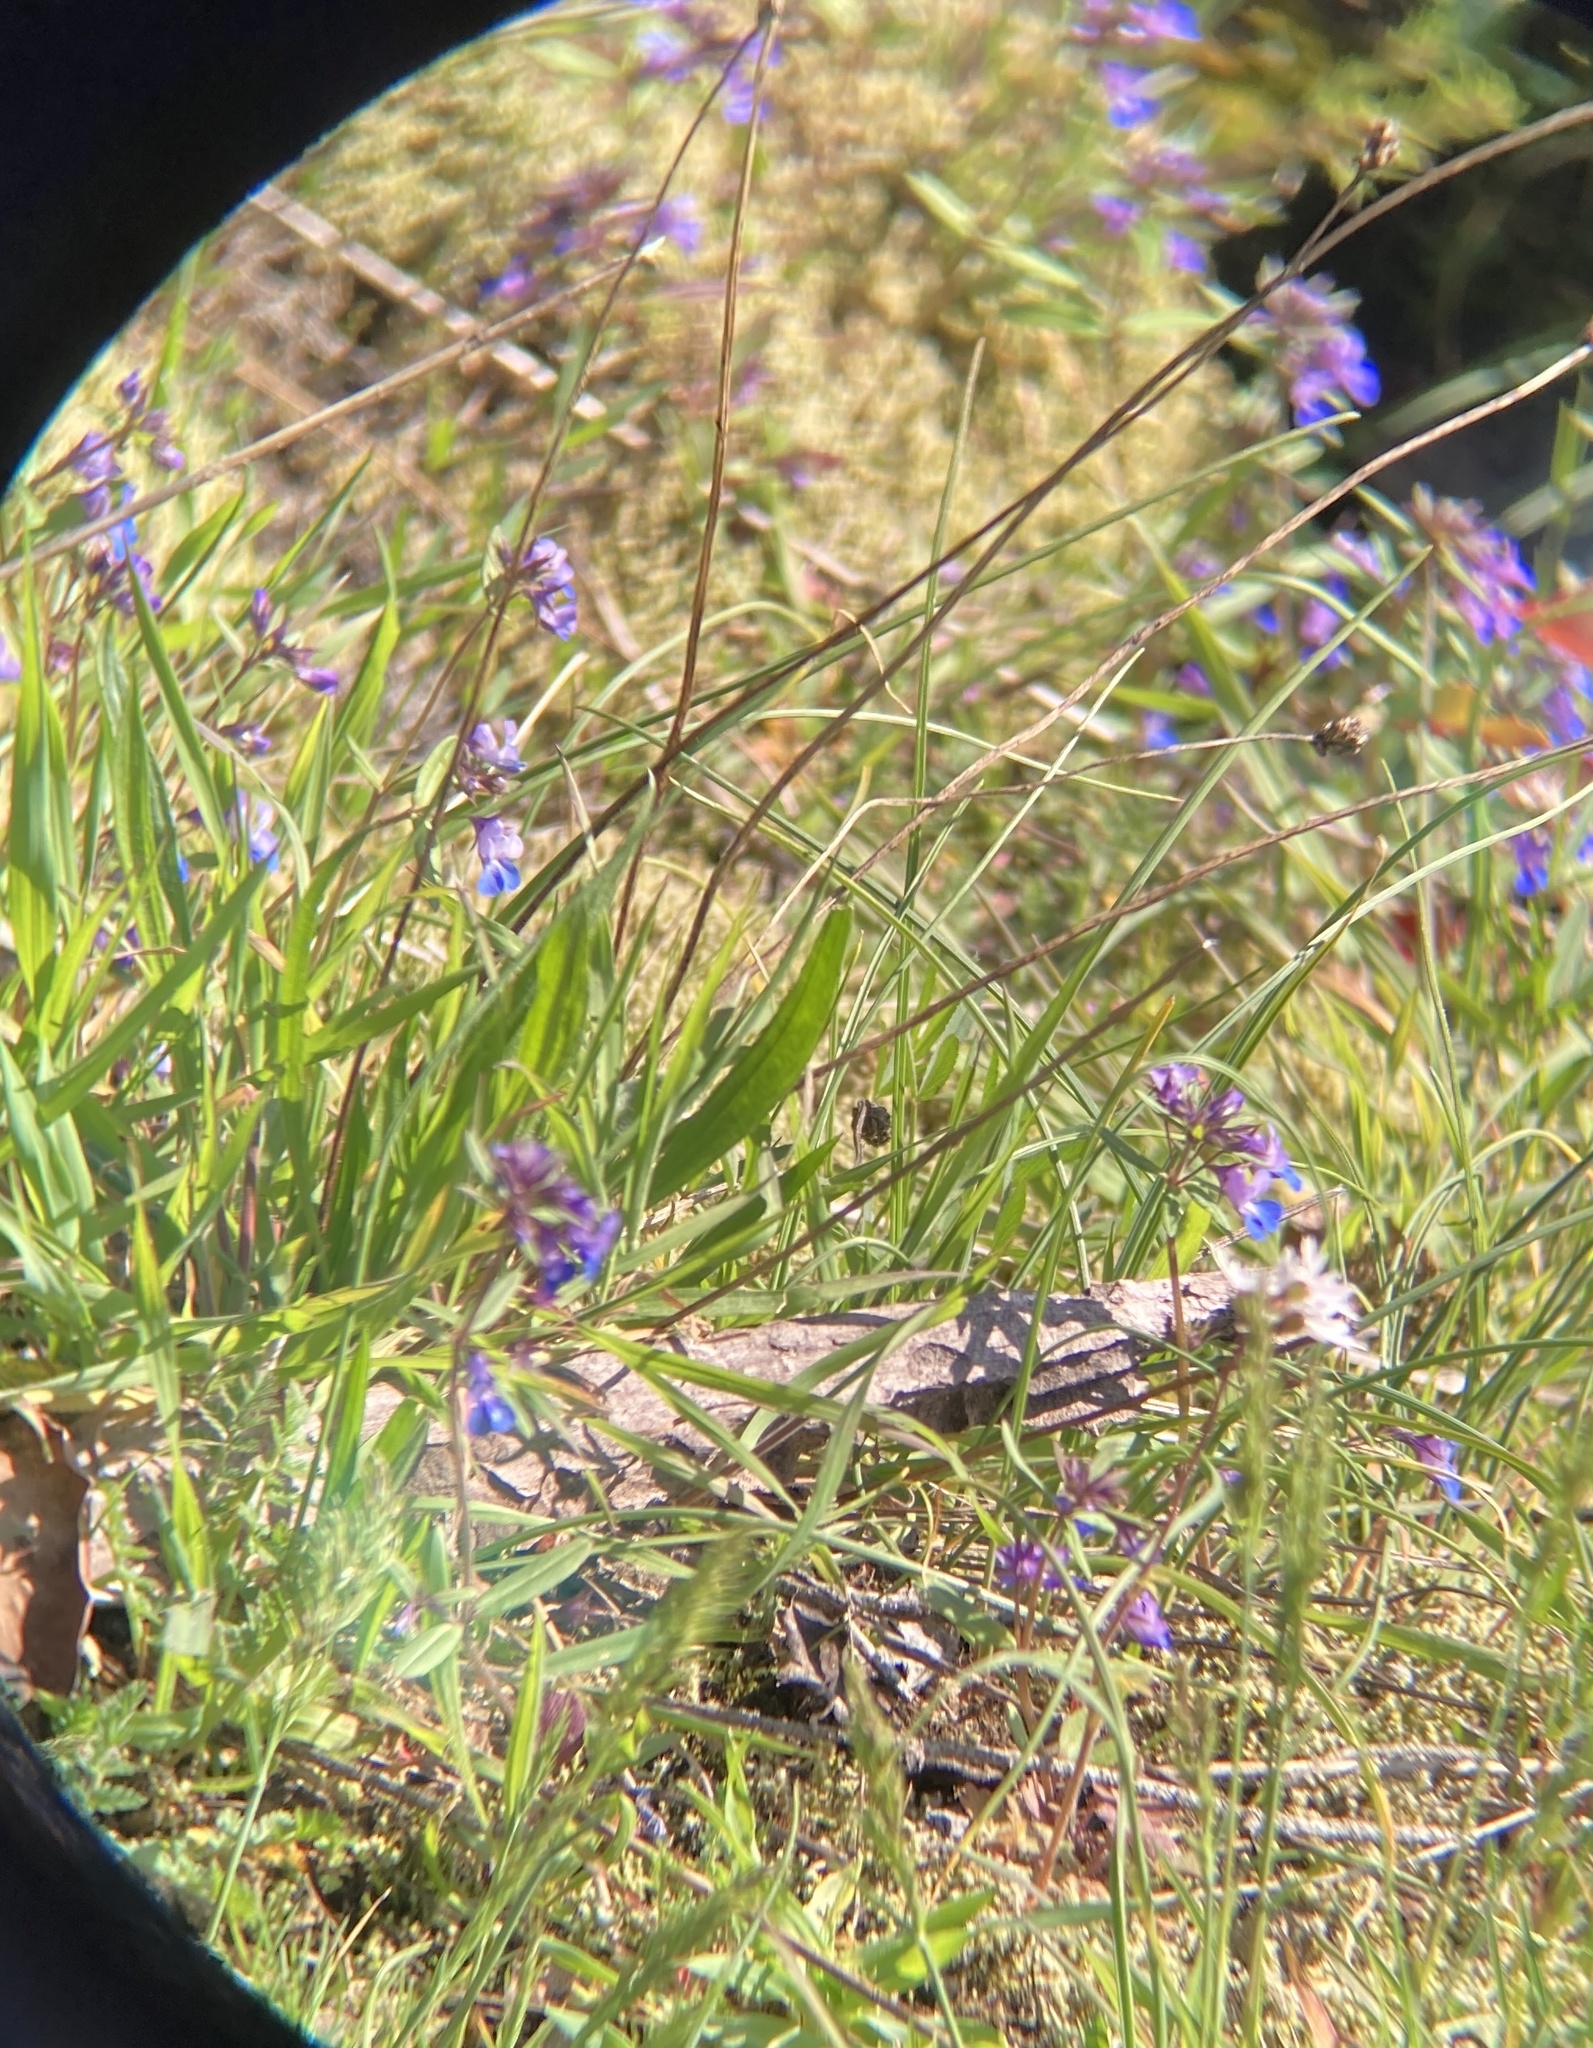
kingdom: Plantae
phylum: Tracheophyta
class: Magnoliopsida
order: Lamiales
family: Plantaginaceae
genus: Collinsia
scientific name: Collinsia grandiflora
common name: Large-flower blue-eyed-mary
